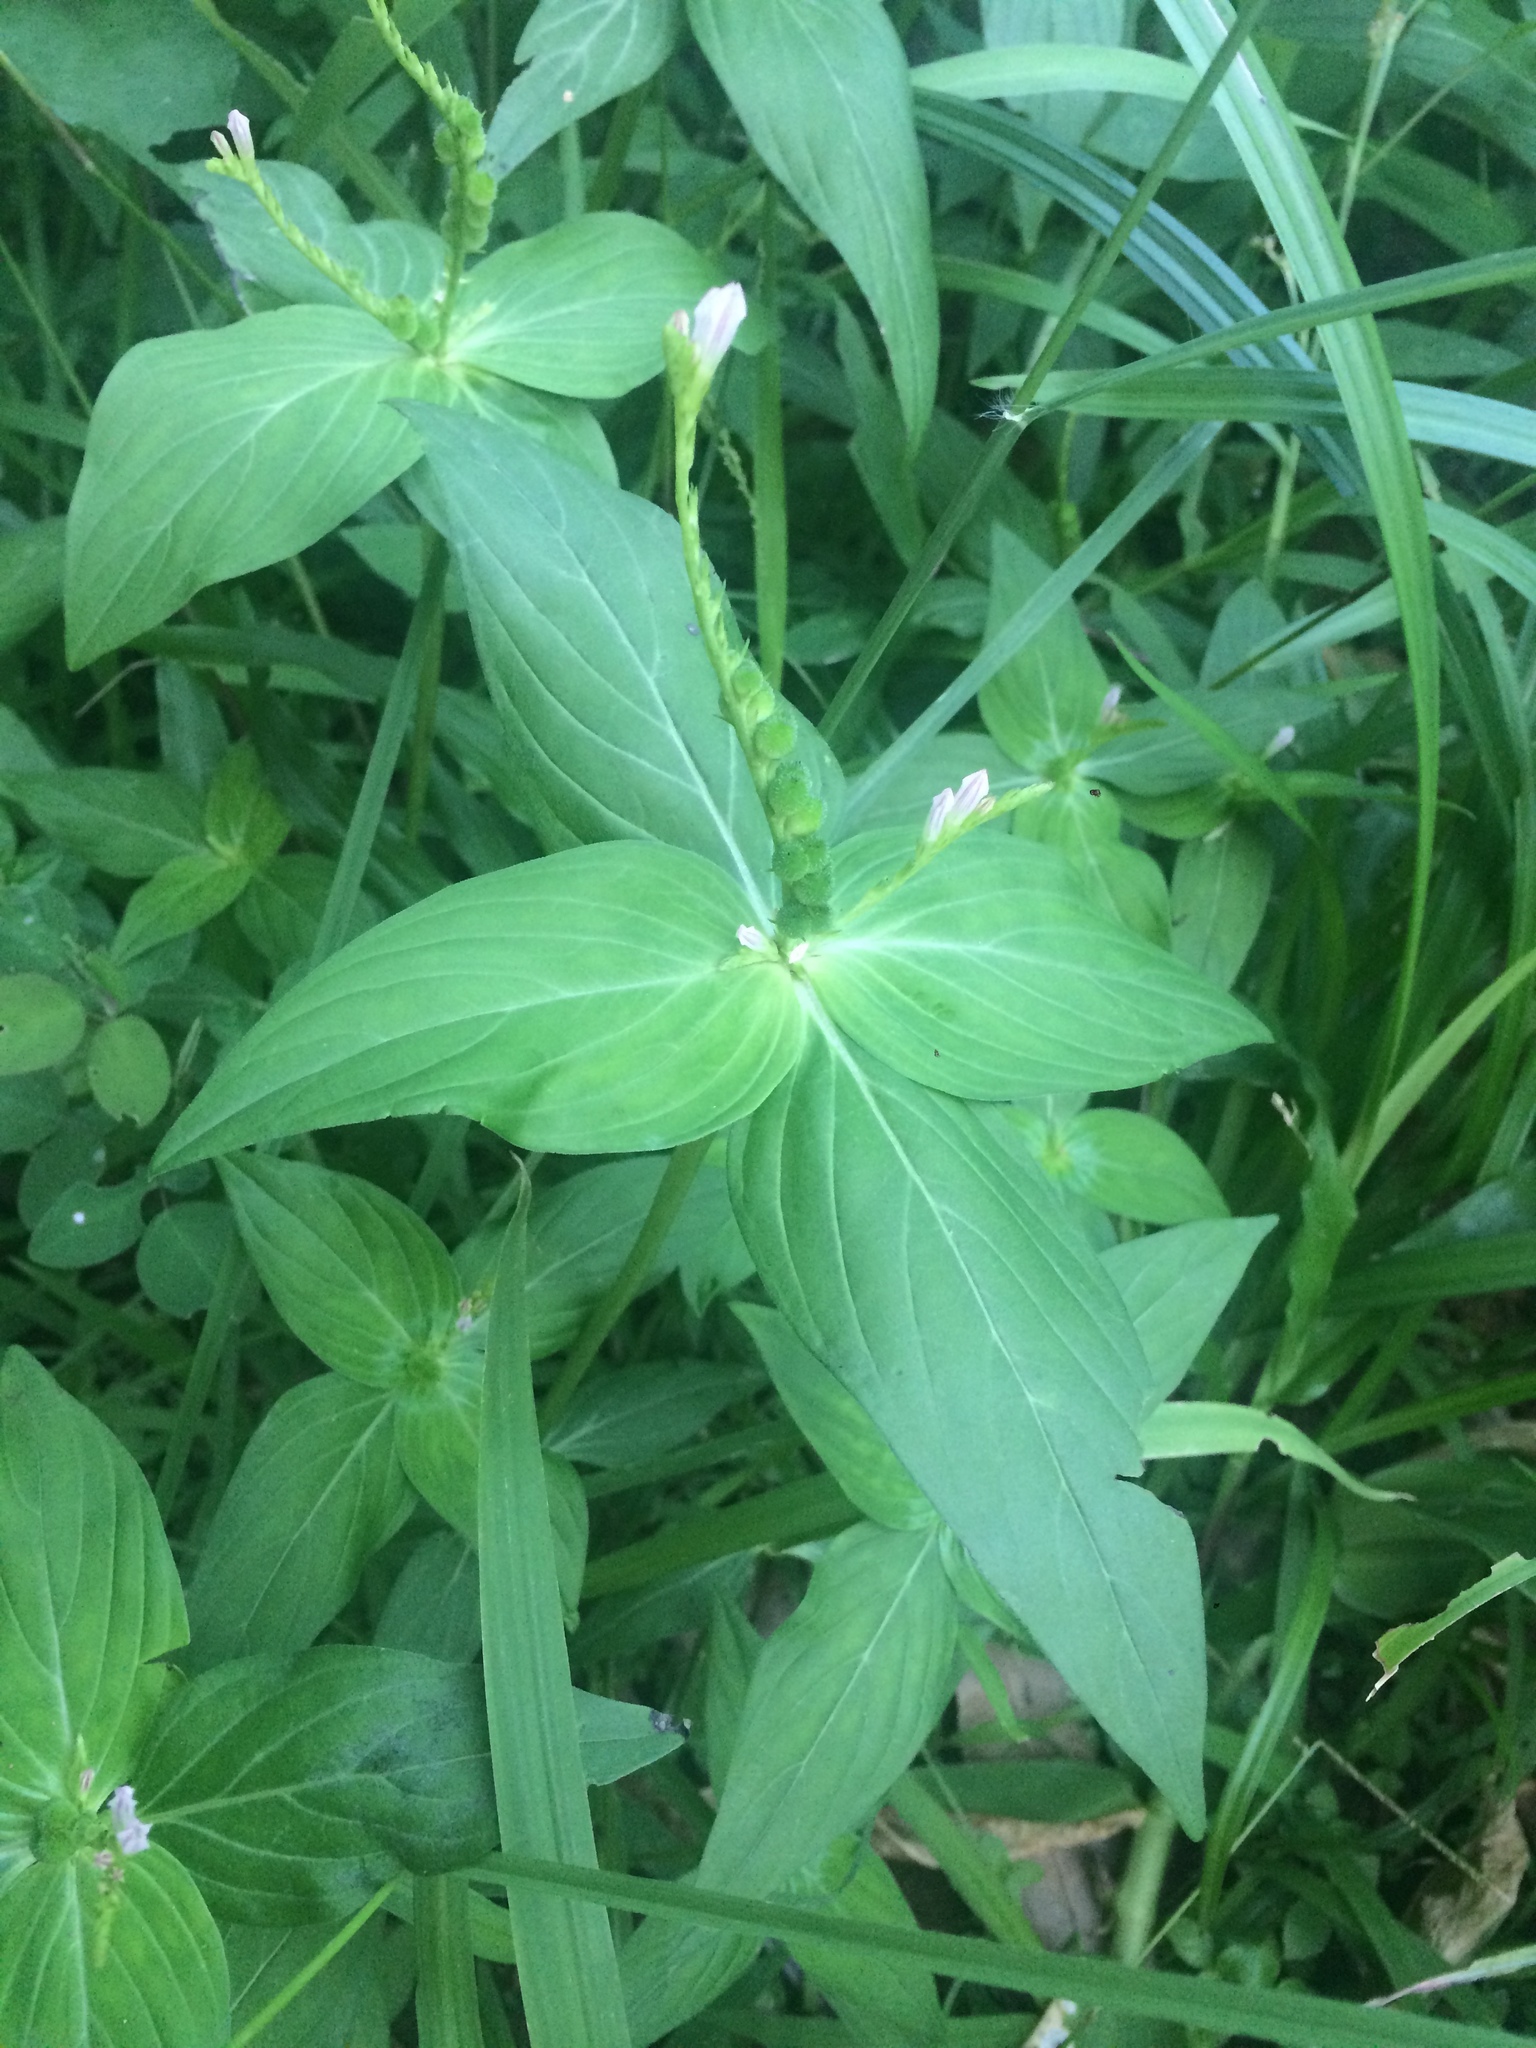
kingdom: Plantae
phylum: Tracheophyta
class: Magnoliopsida
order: Gentianales
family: Loganiaceae
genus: Spigelia
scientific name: Spigelia anthelmia
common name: West indian-pink
